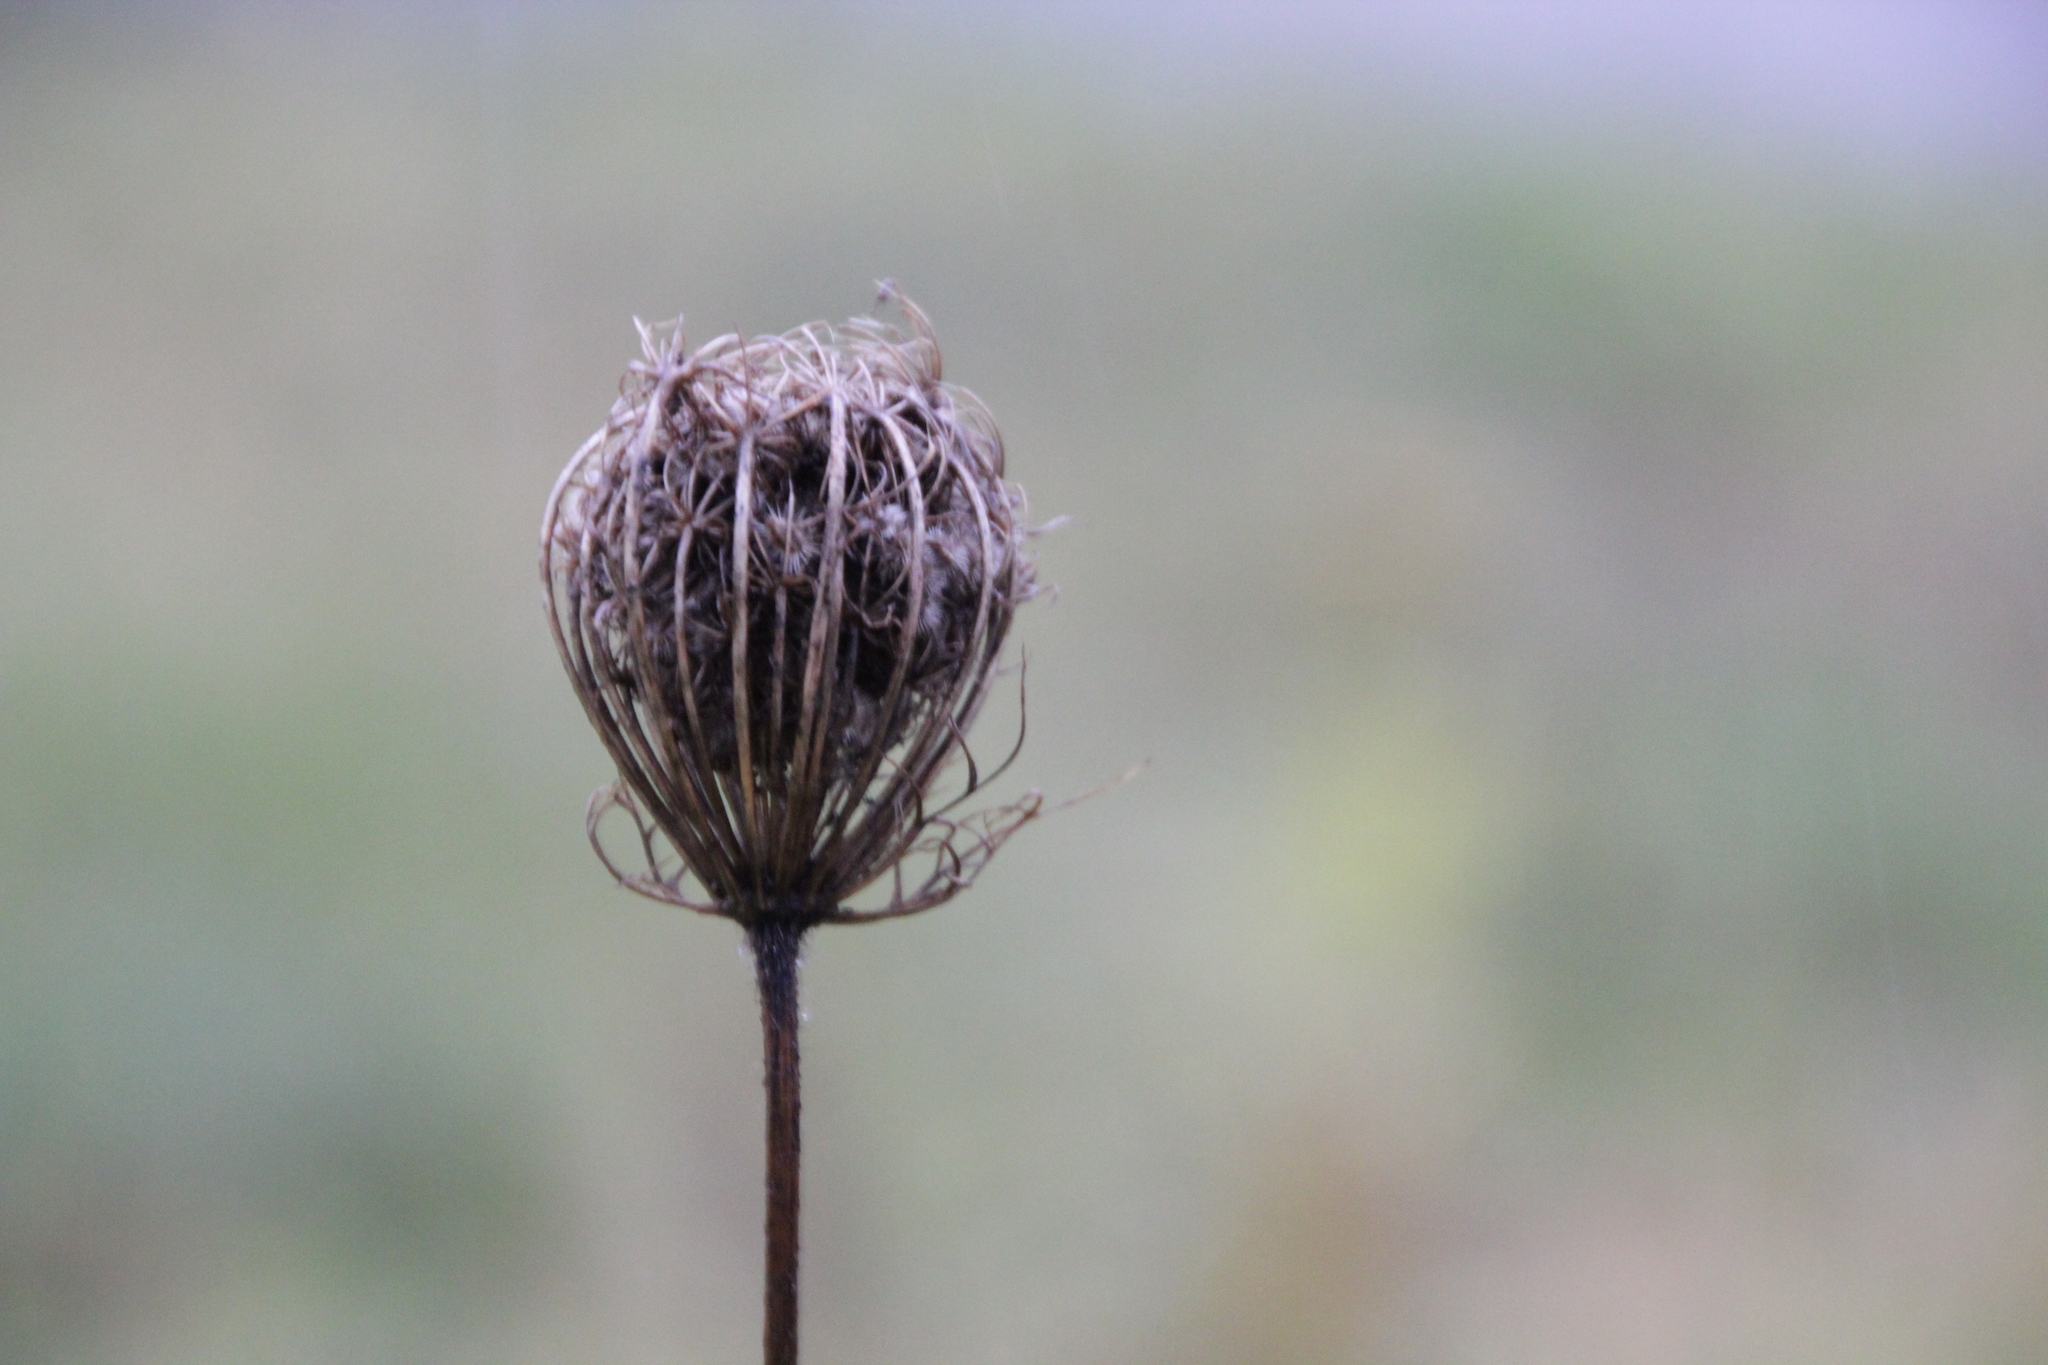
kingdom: Plantae
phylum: Tracheophyta
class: Magnoliopsida
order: Apiales
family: Apiaceae
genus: Daucus
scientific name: Daucus carota
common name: Wild carrot
